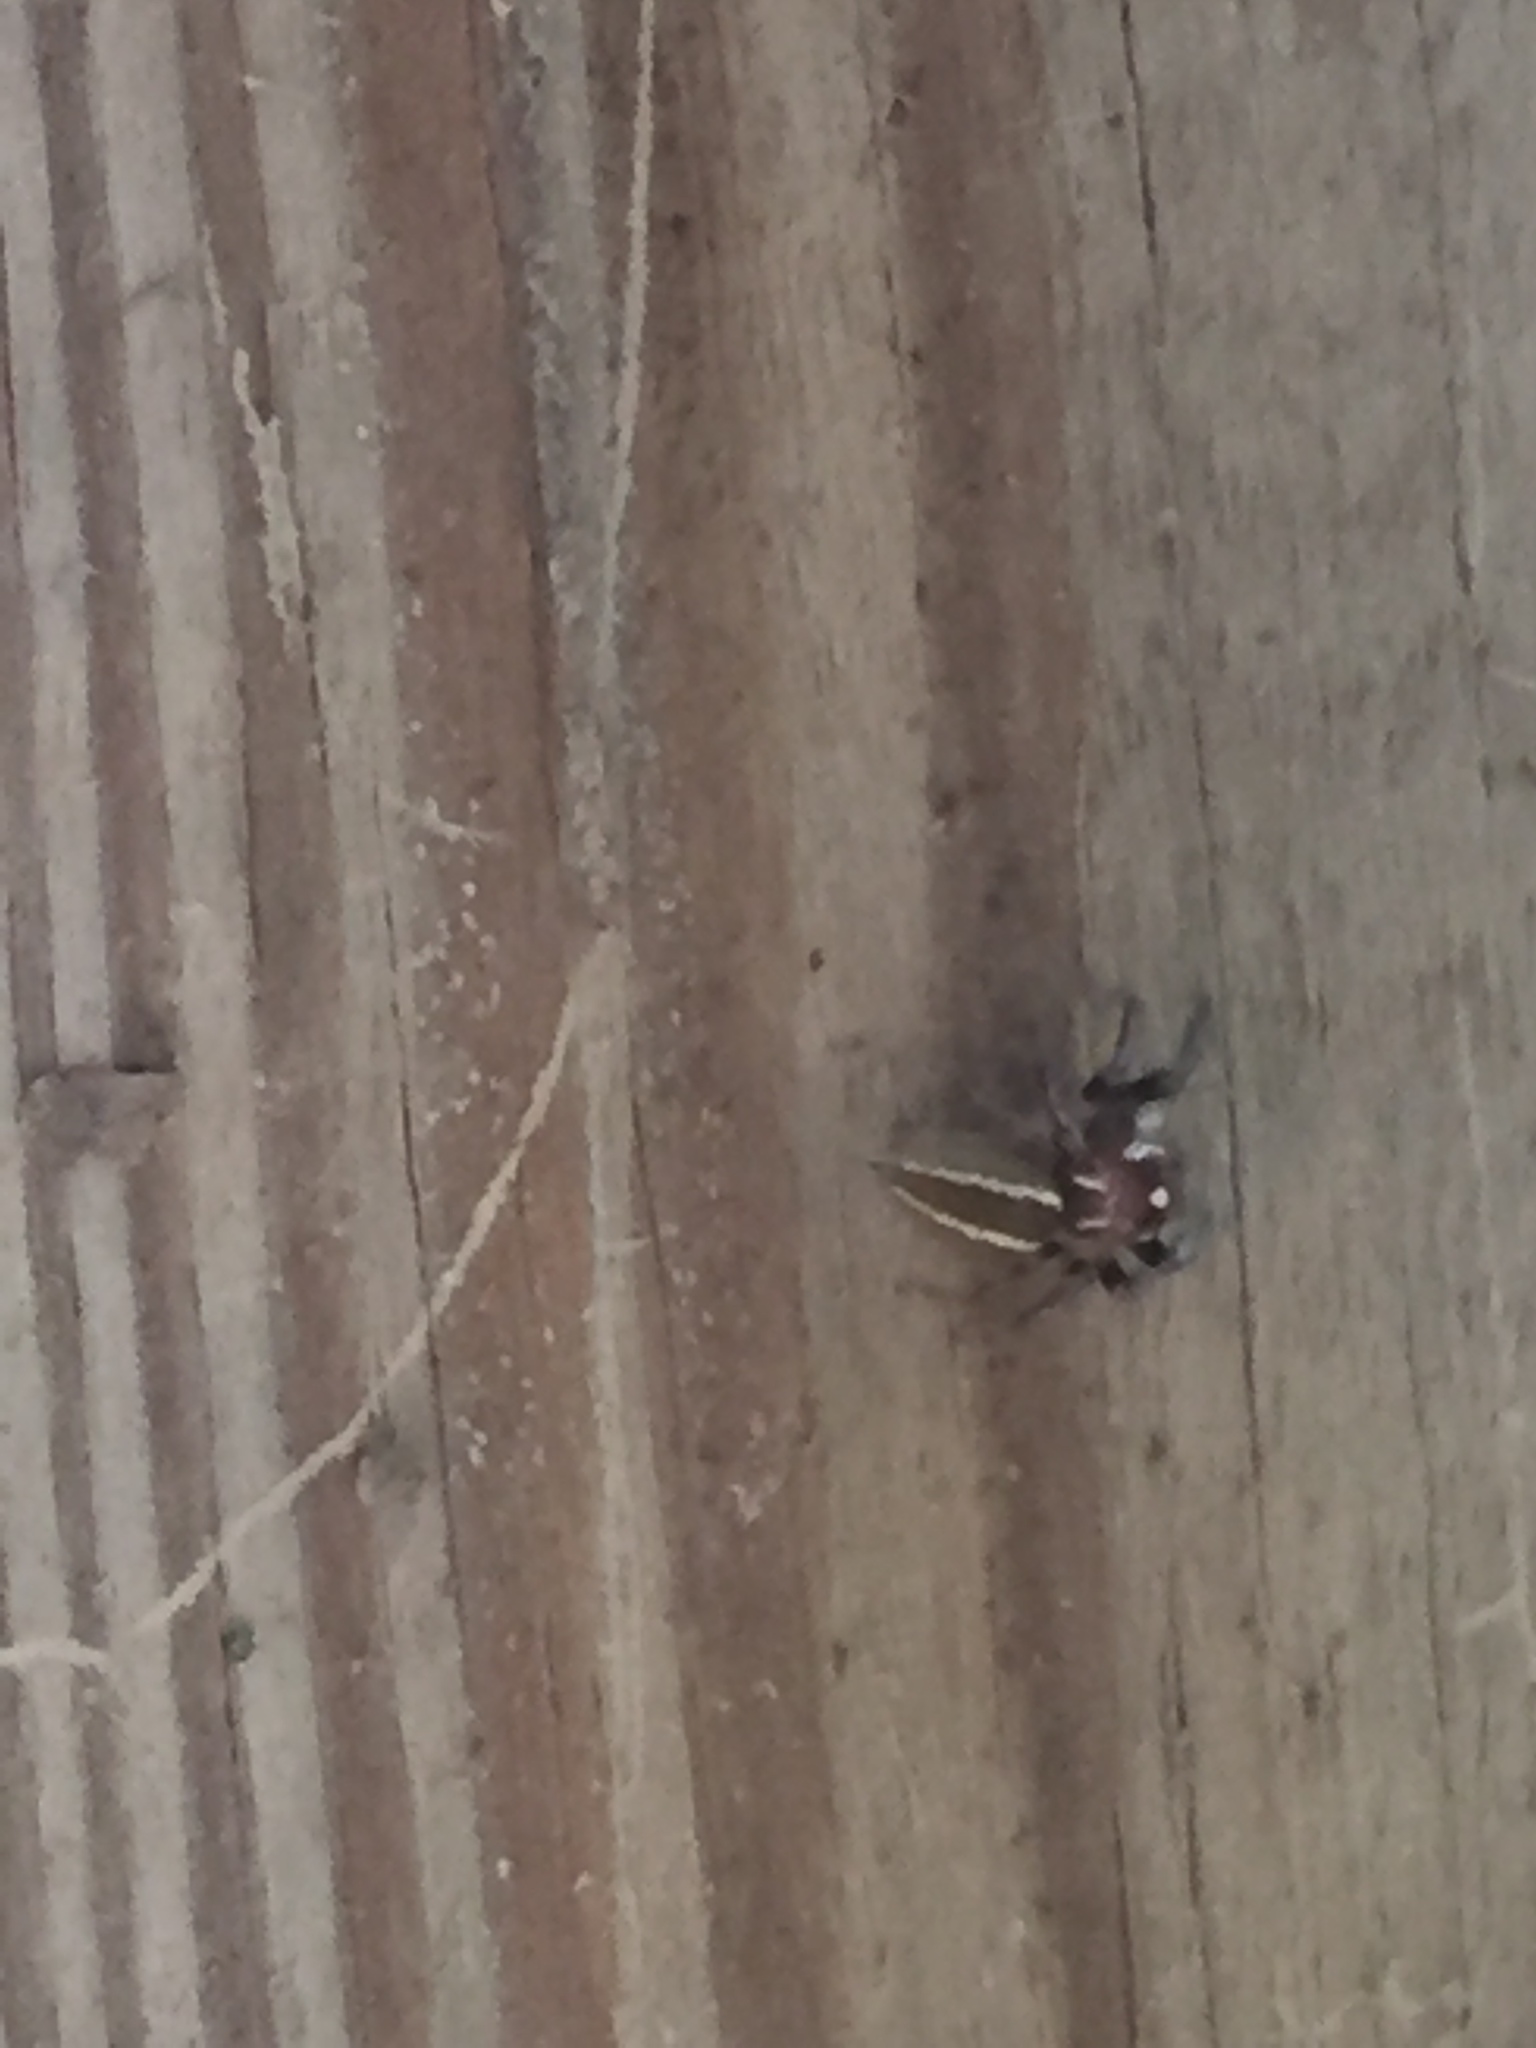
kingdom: Animalia
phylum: Arthropoda
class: Arachnida
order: Araneae
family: Salticidae
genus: Colonus
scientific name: Colonus sylvanus
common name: Jumping spiders
